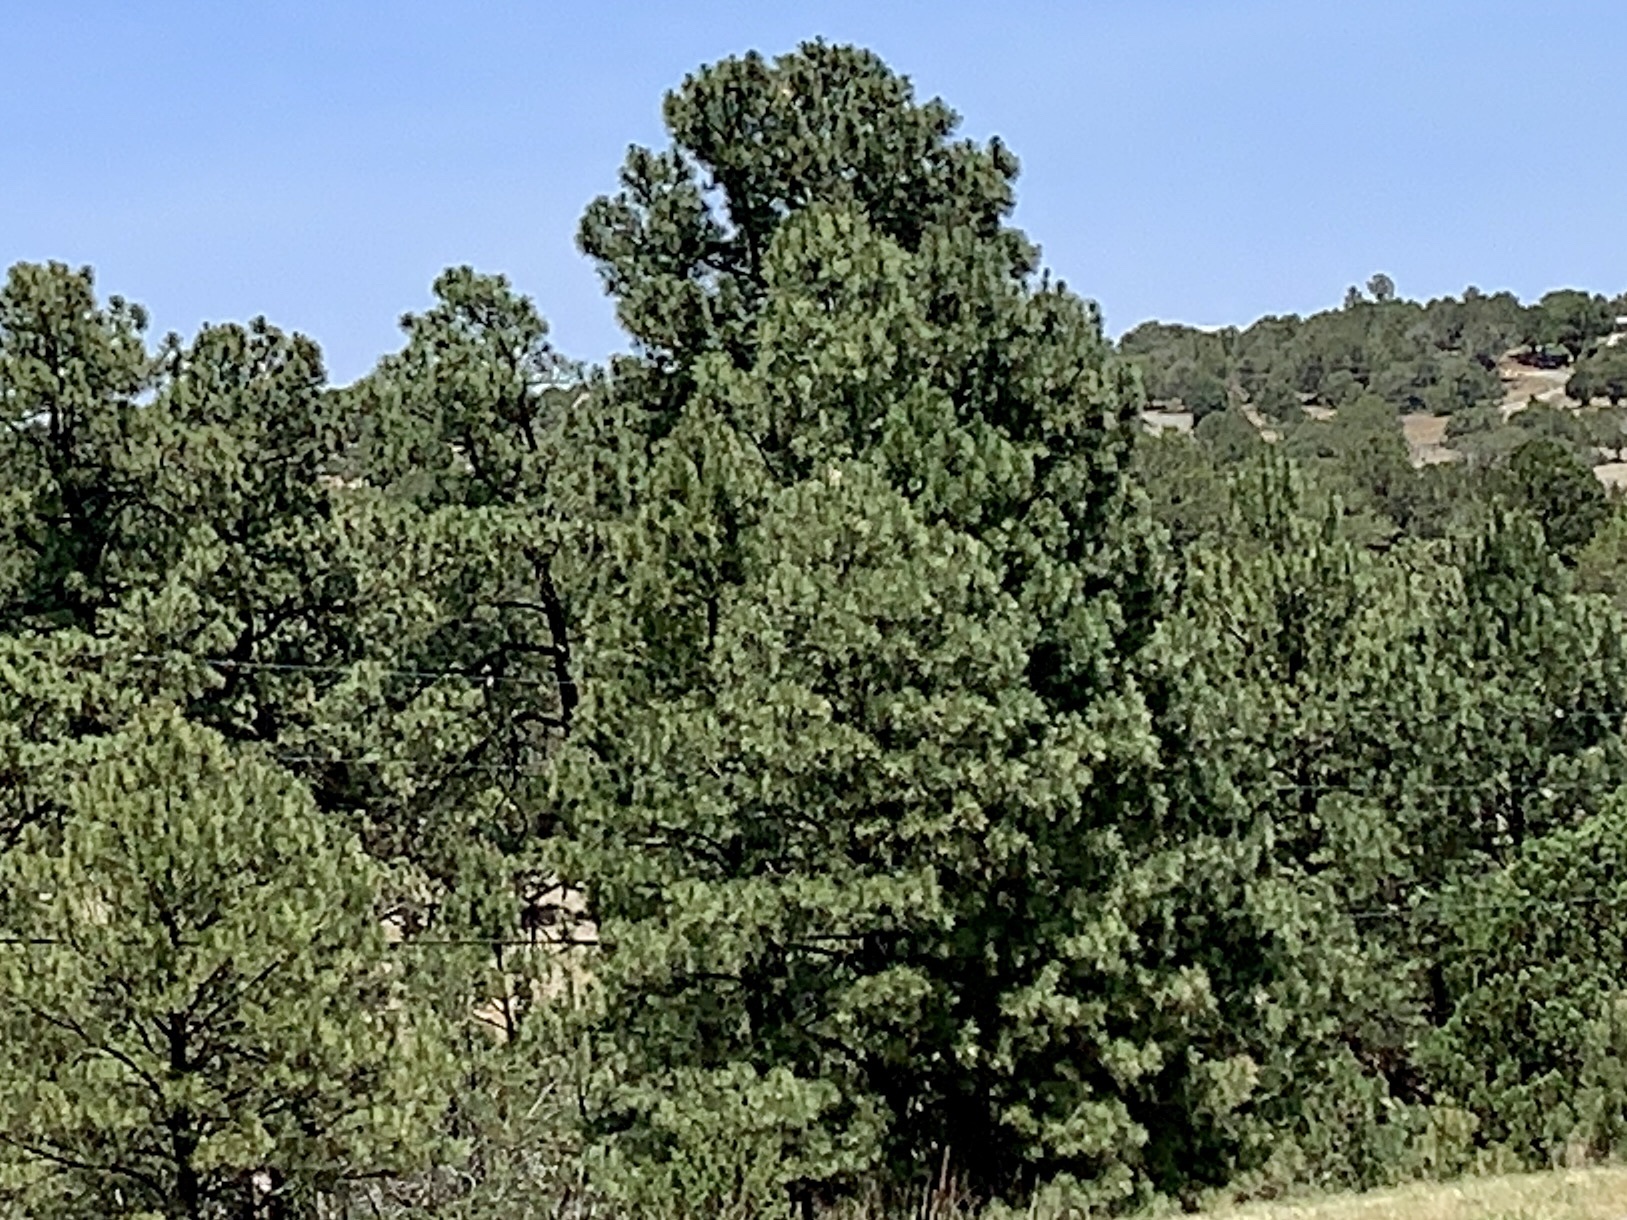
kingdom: Plantae
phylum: Tracheophyta
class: Pinopsida
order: Pinales
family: Pinaceae
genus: Pinus
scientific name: Pinus ponderosa
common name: Western yellow-pine
